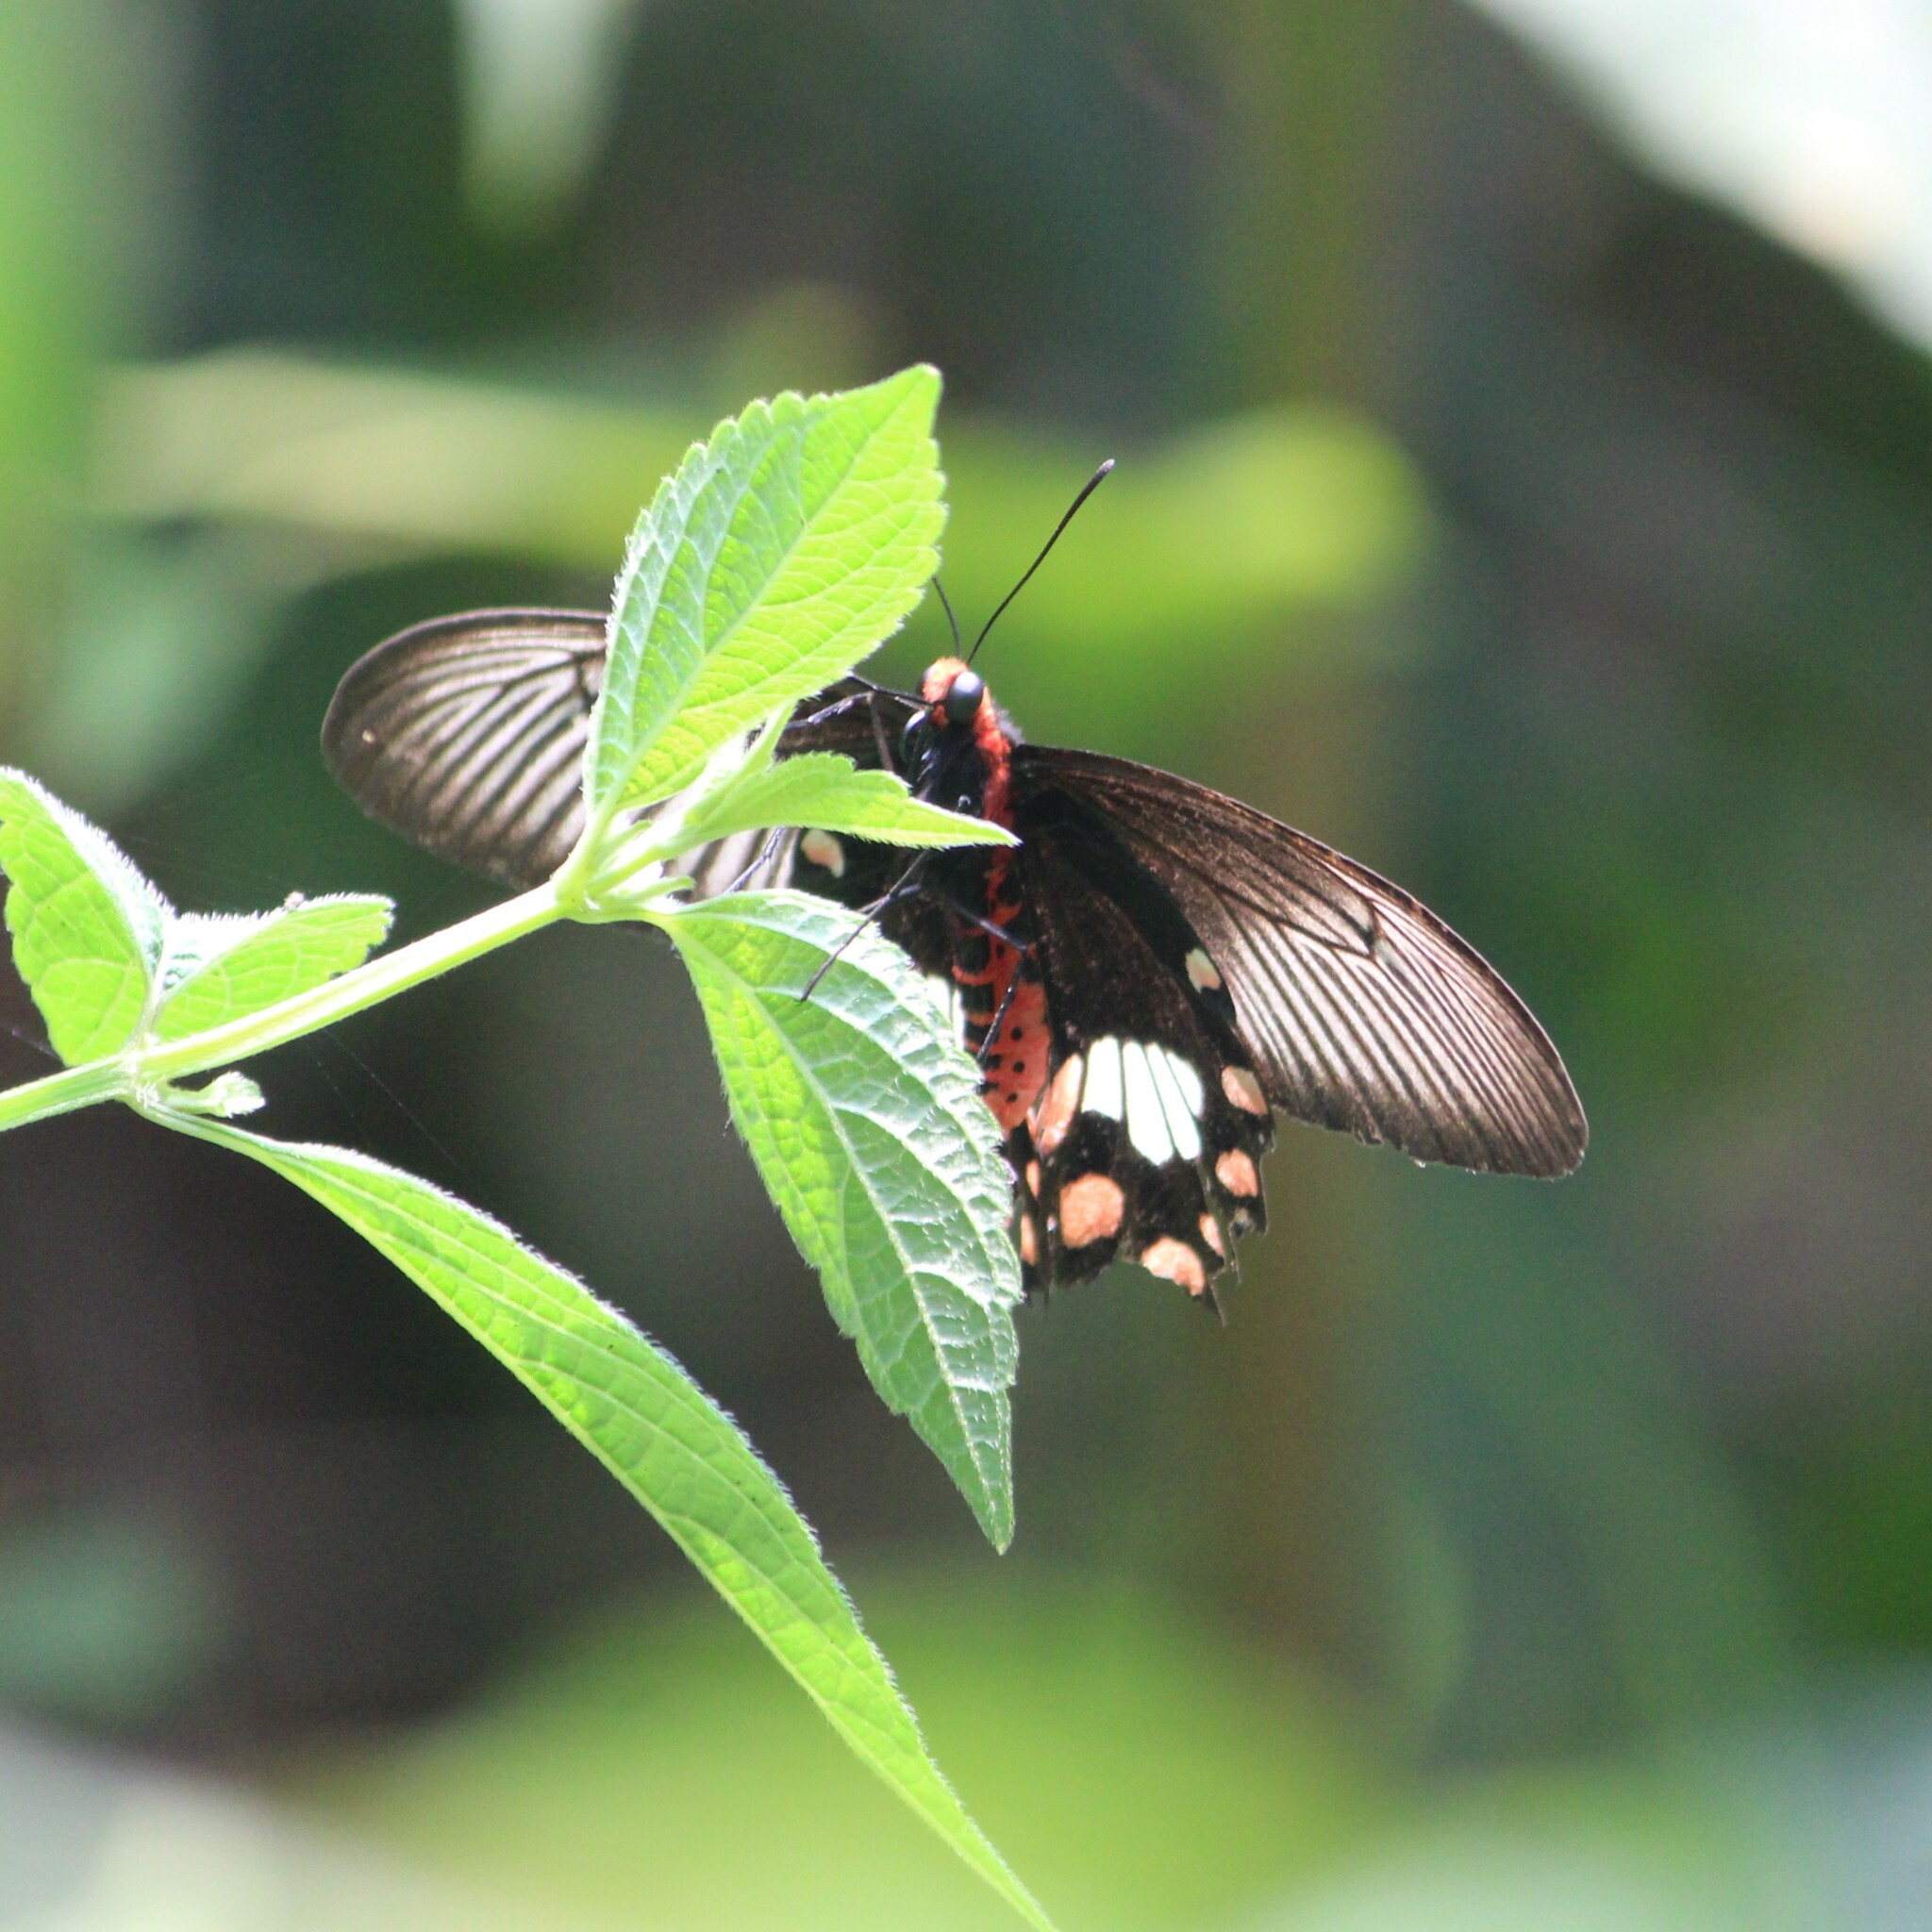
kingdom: Animalia
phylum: Arthropoda
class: Insecta
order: Lepidoptera
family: Papilionidae
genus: Pachliopta
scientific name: Pachliopta aristolochiae
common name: Common rose
